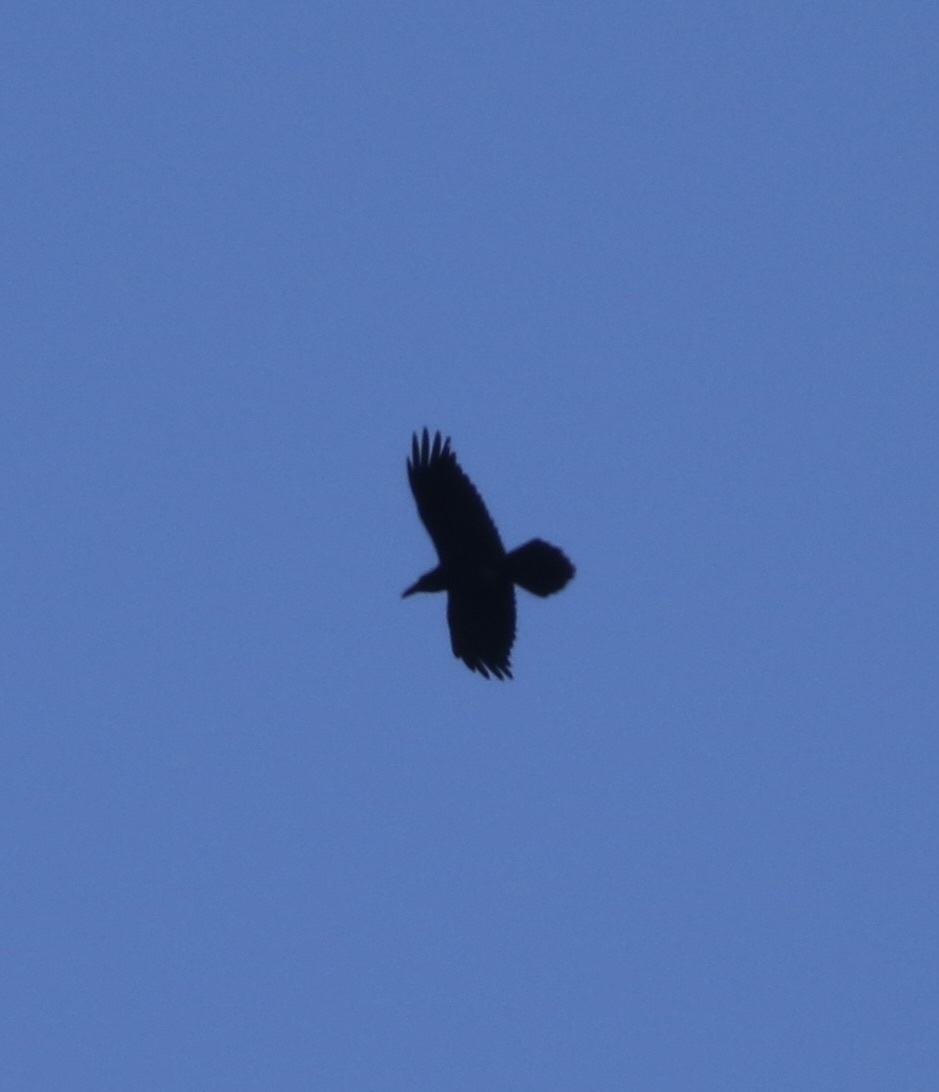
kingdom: Animalia
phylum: Chordata
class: Aves
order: Passeriformes
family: Corvidae
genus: Corvus
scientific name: Corvus corax
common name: Common raven
